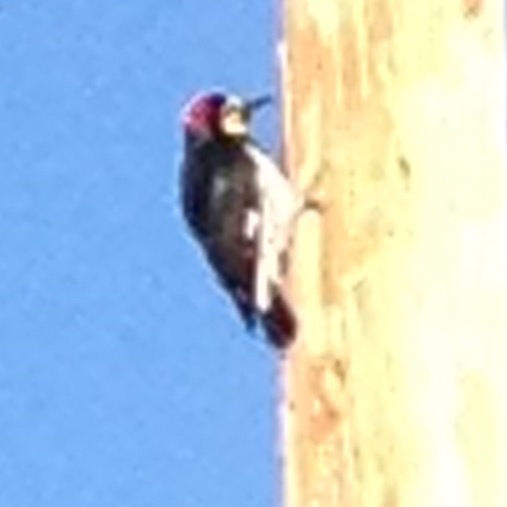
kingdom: Animalia
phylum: Chordata
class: Aves
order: Piciformes
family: Picidae
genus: Melanerpes
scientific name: Melanerpes formicivorus
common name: Acorn woodpecker
